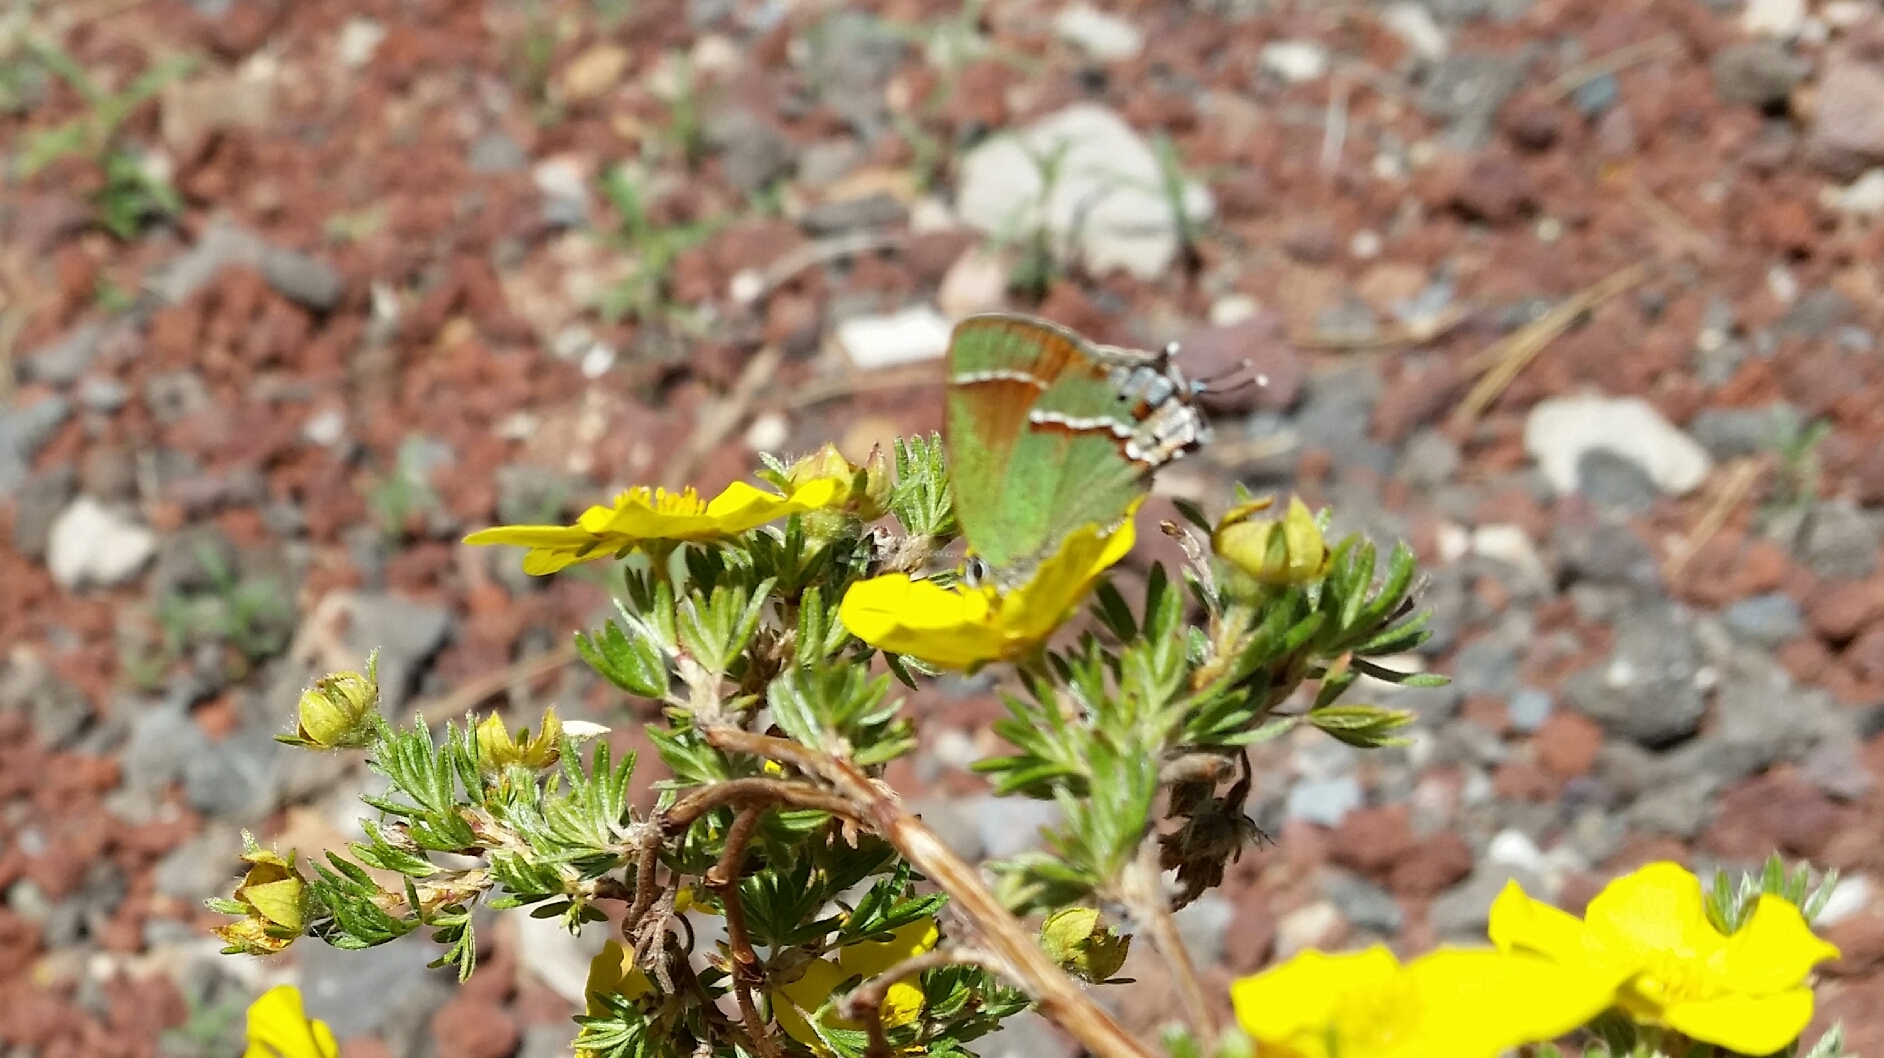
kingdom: Animalia
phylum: Arthropoda
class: Insecta
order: Lepidoptera
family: Lycaenidae
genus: Mitoura
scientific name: Mitoura siva
